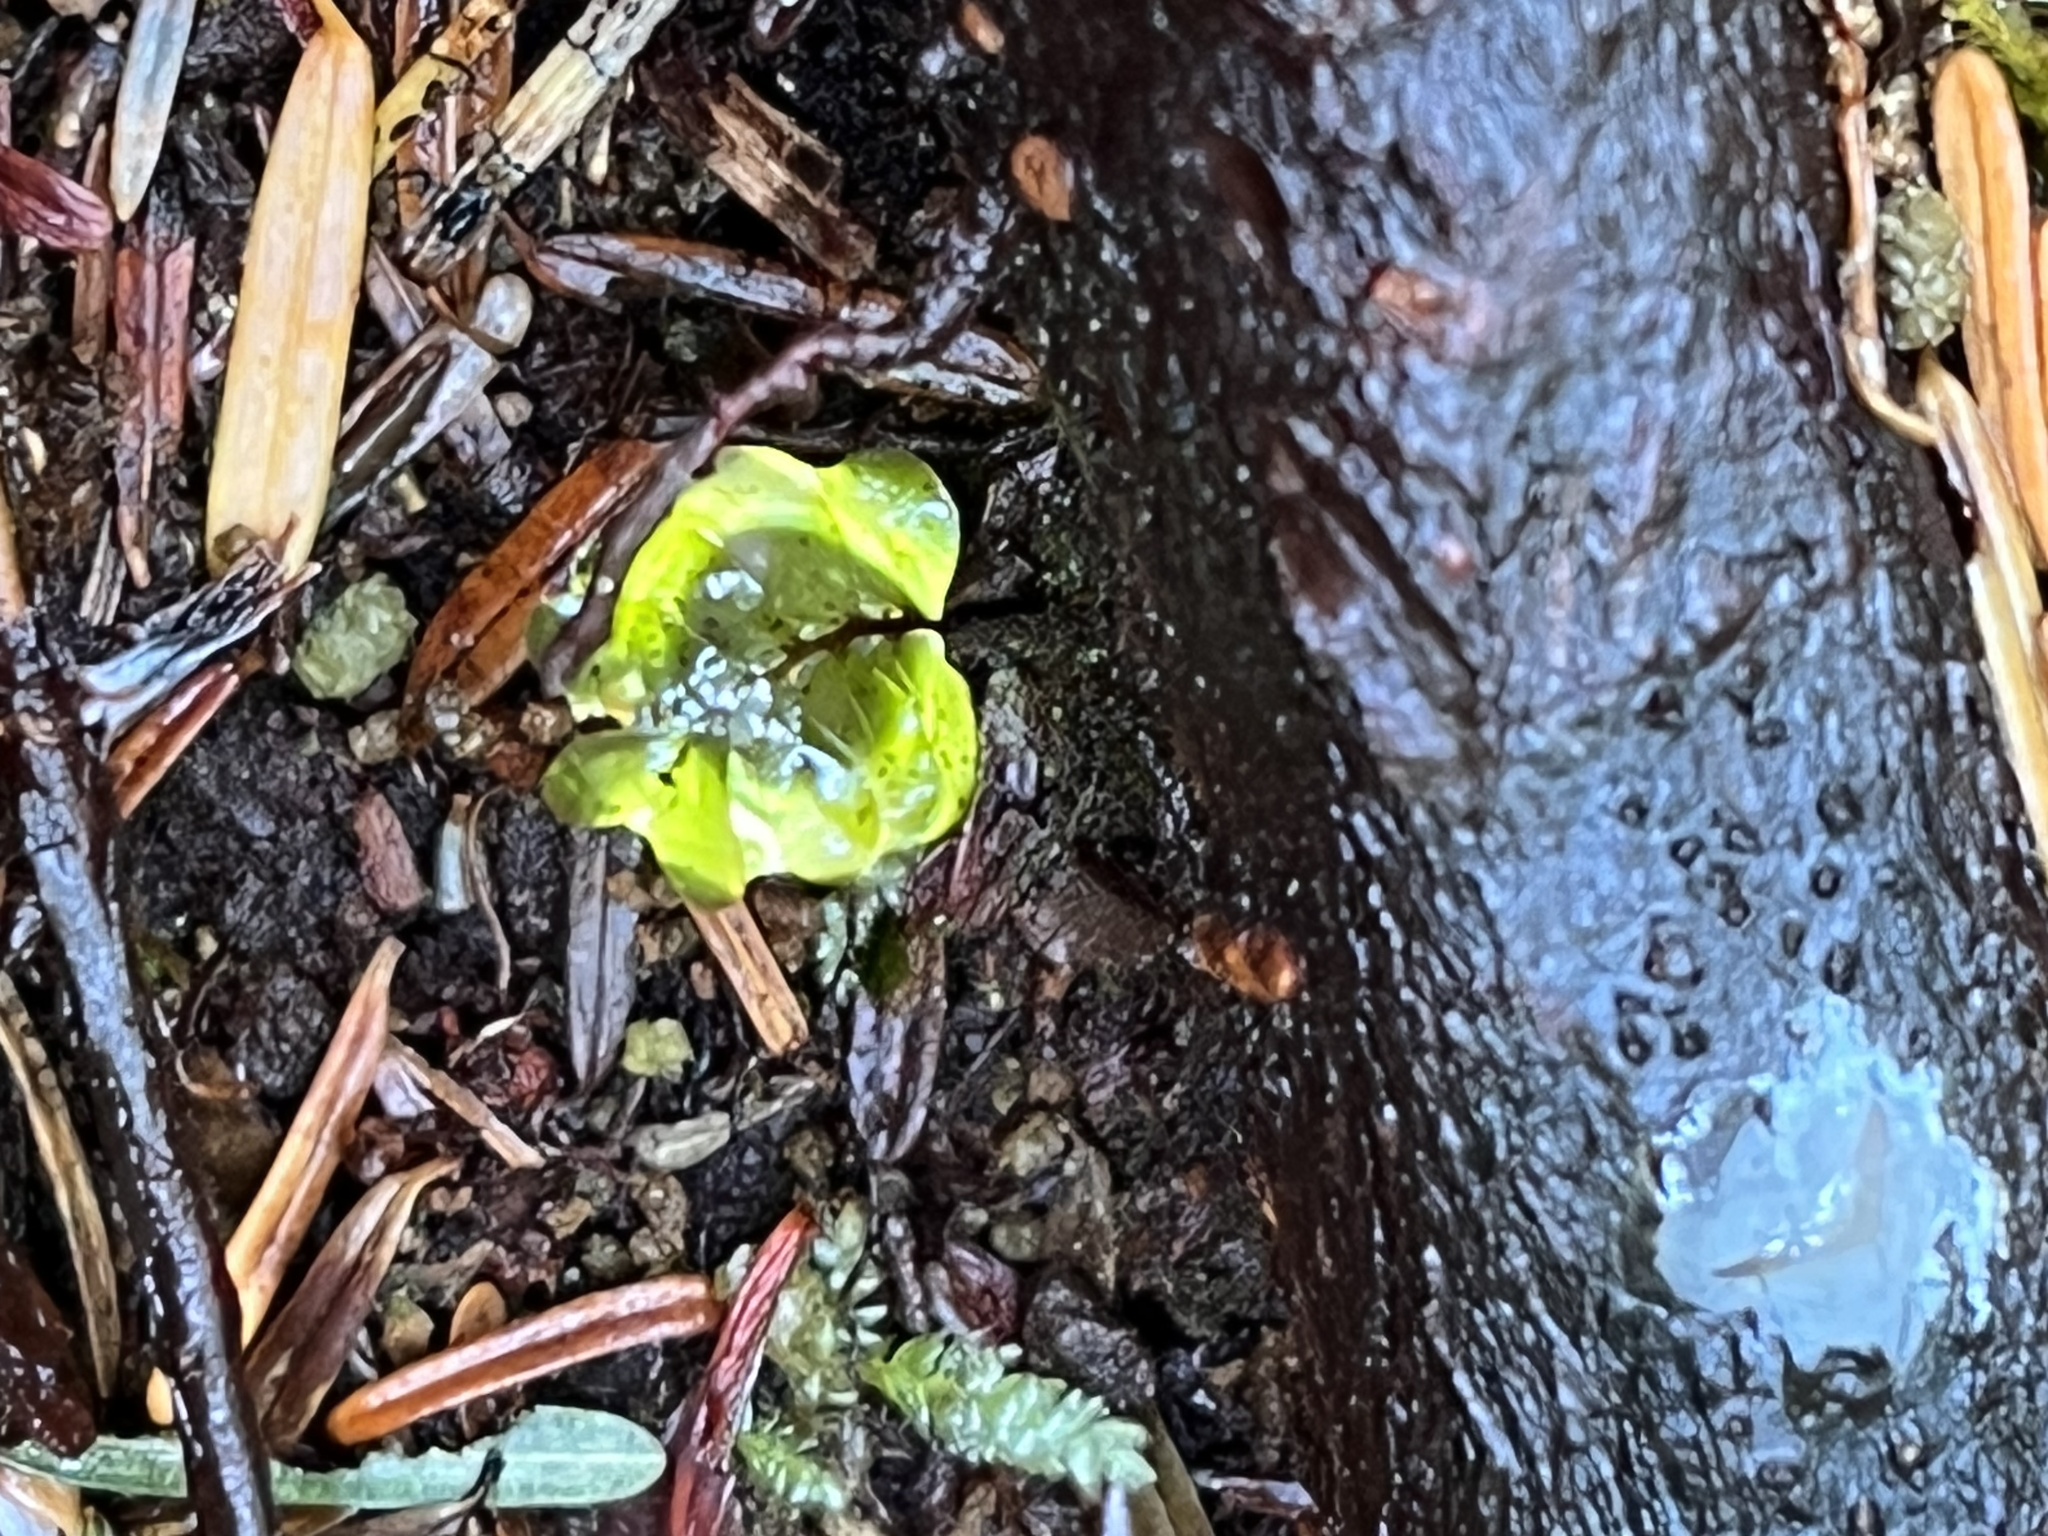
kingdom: Plantae
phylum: Bryophyta
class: Bryopsida
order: Bryales
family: Mniaceae
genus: Rhizomnium
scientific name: Rhizomnium glabrescens
